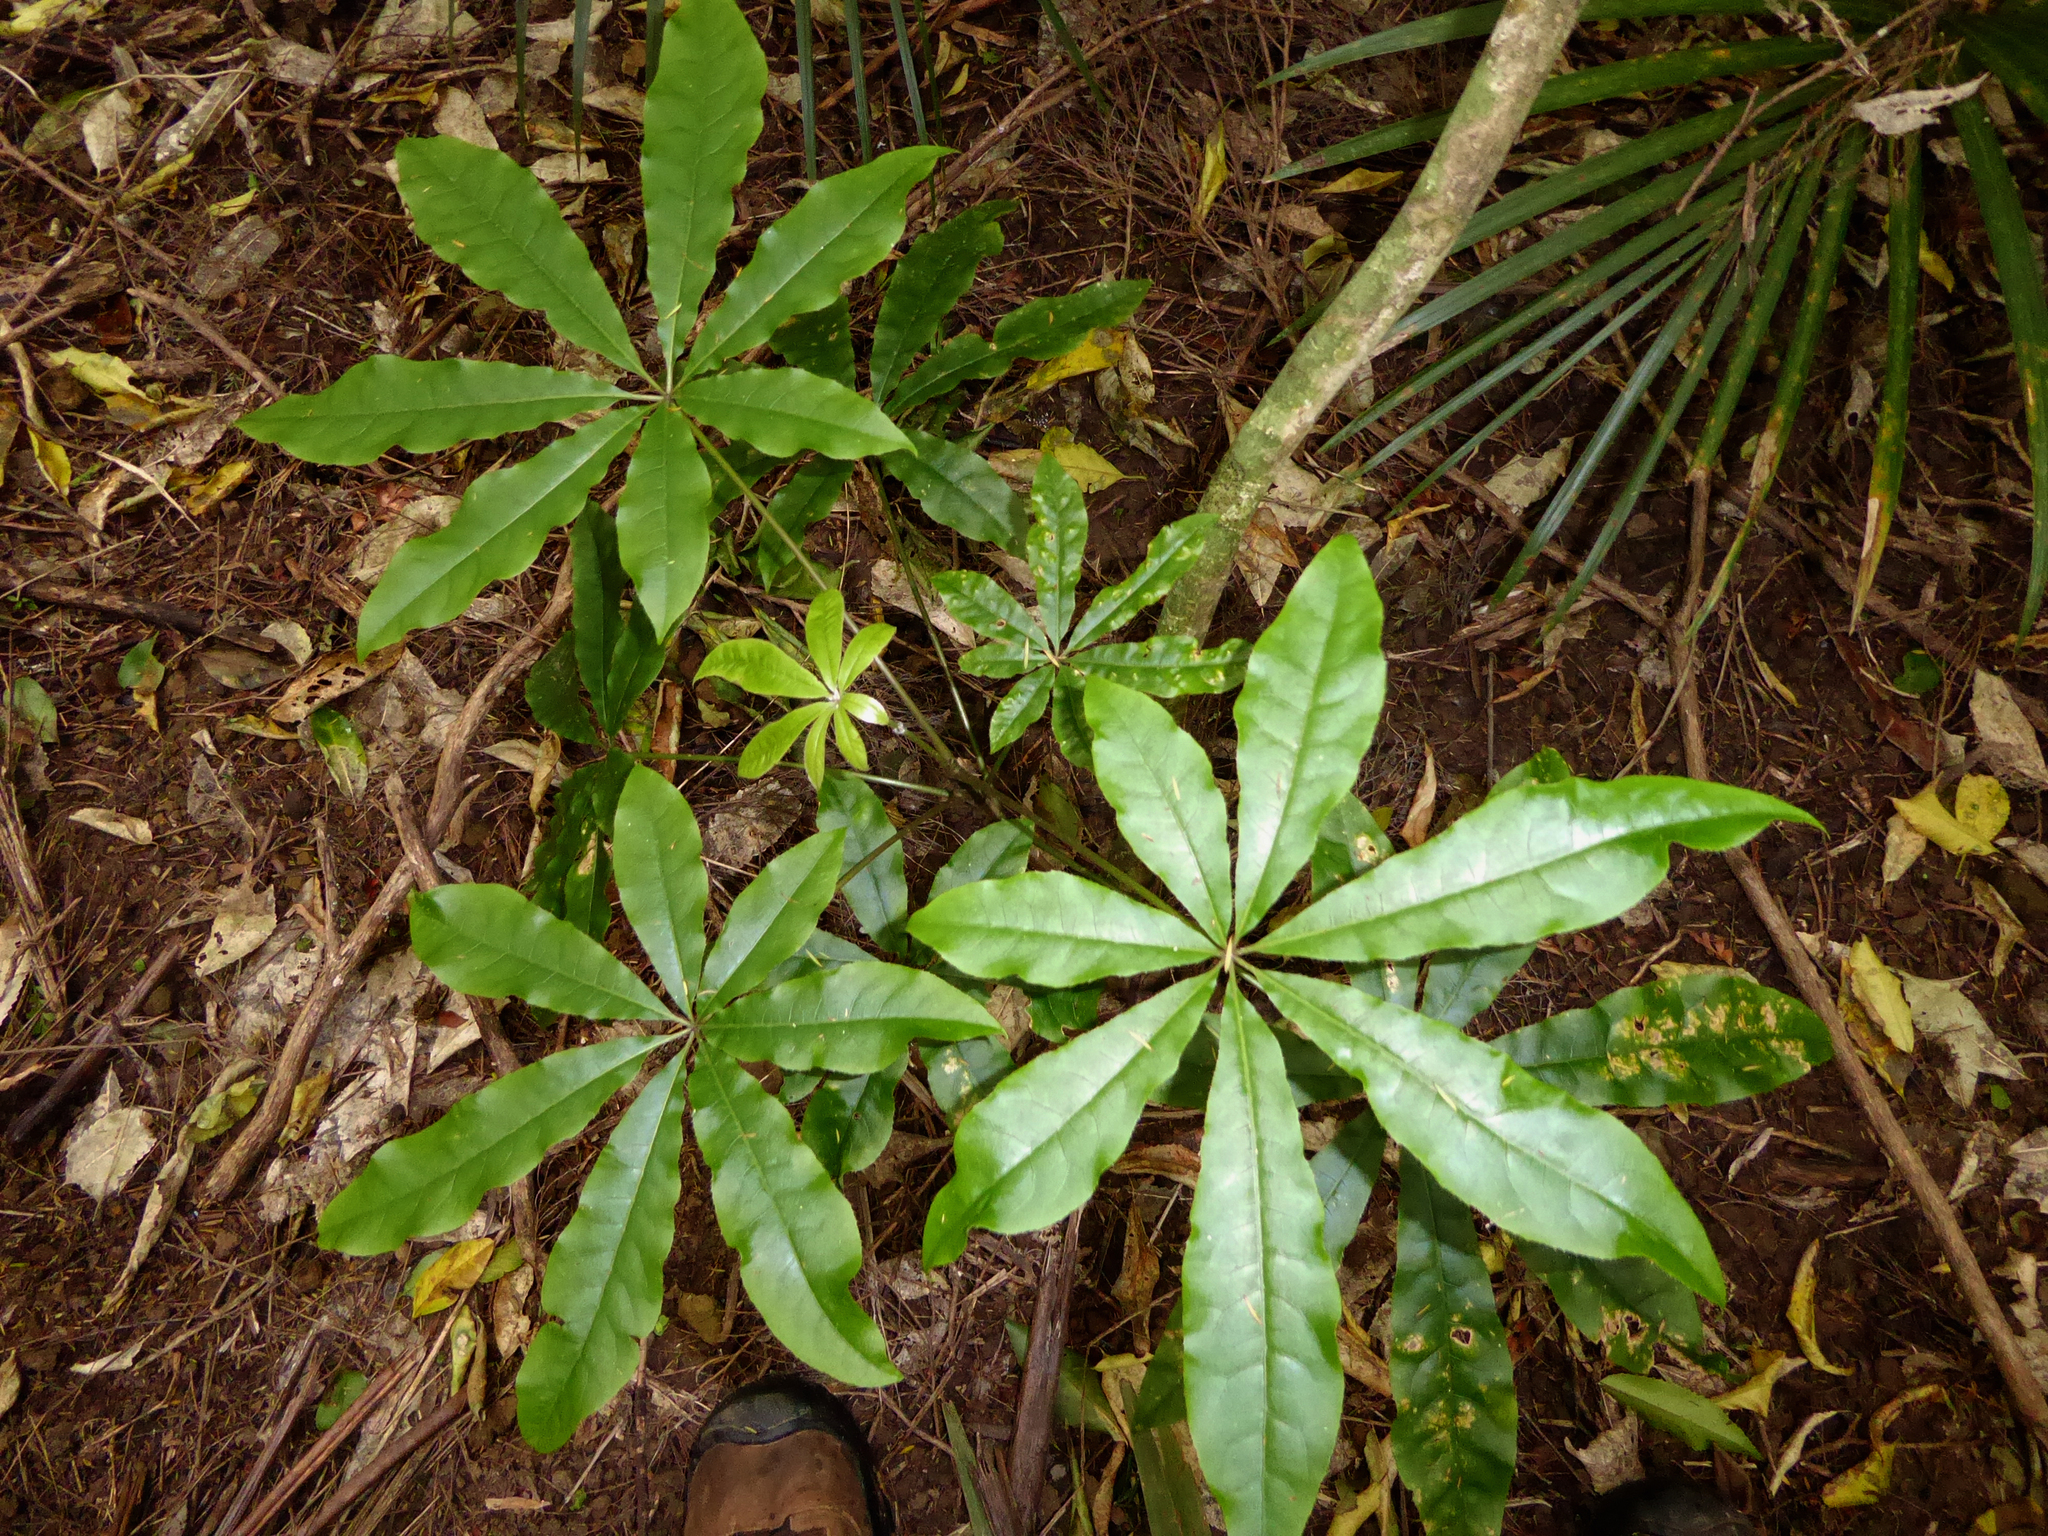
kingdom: Plantae
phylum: Tracheophyta
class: Magnoliopsida
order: Apiales
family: Araliaceae
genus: Schefflera
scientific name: Schefflera digitata
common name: Pate
